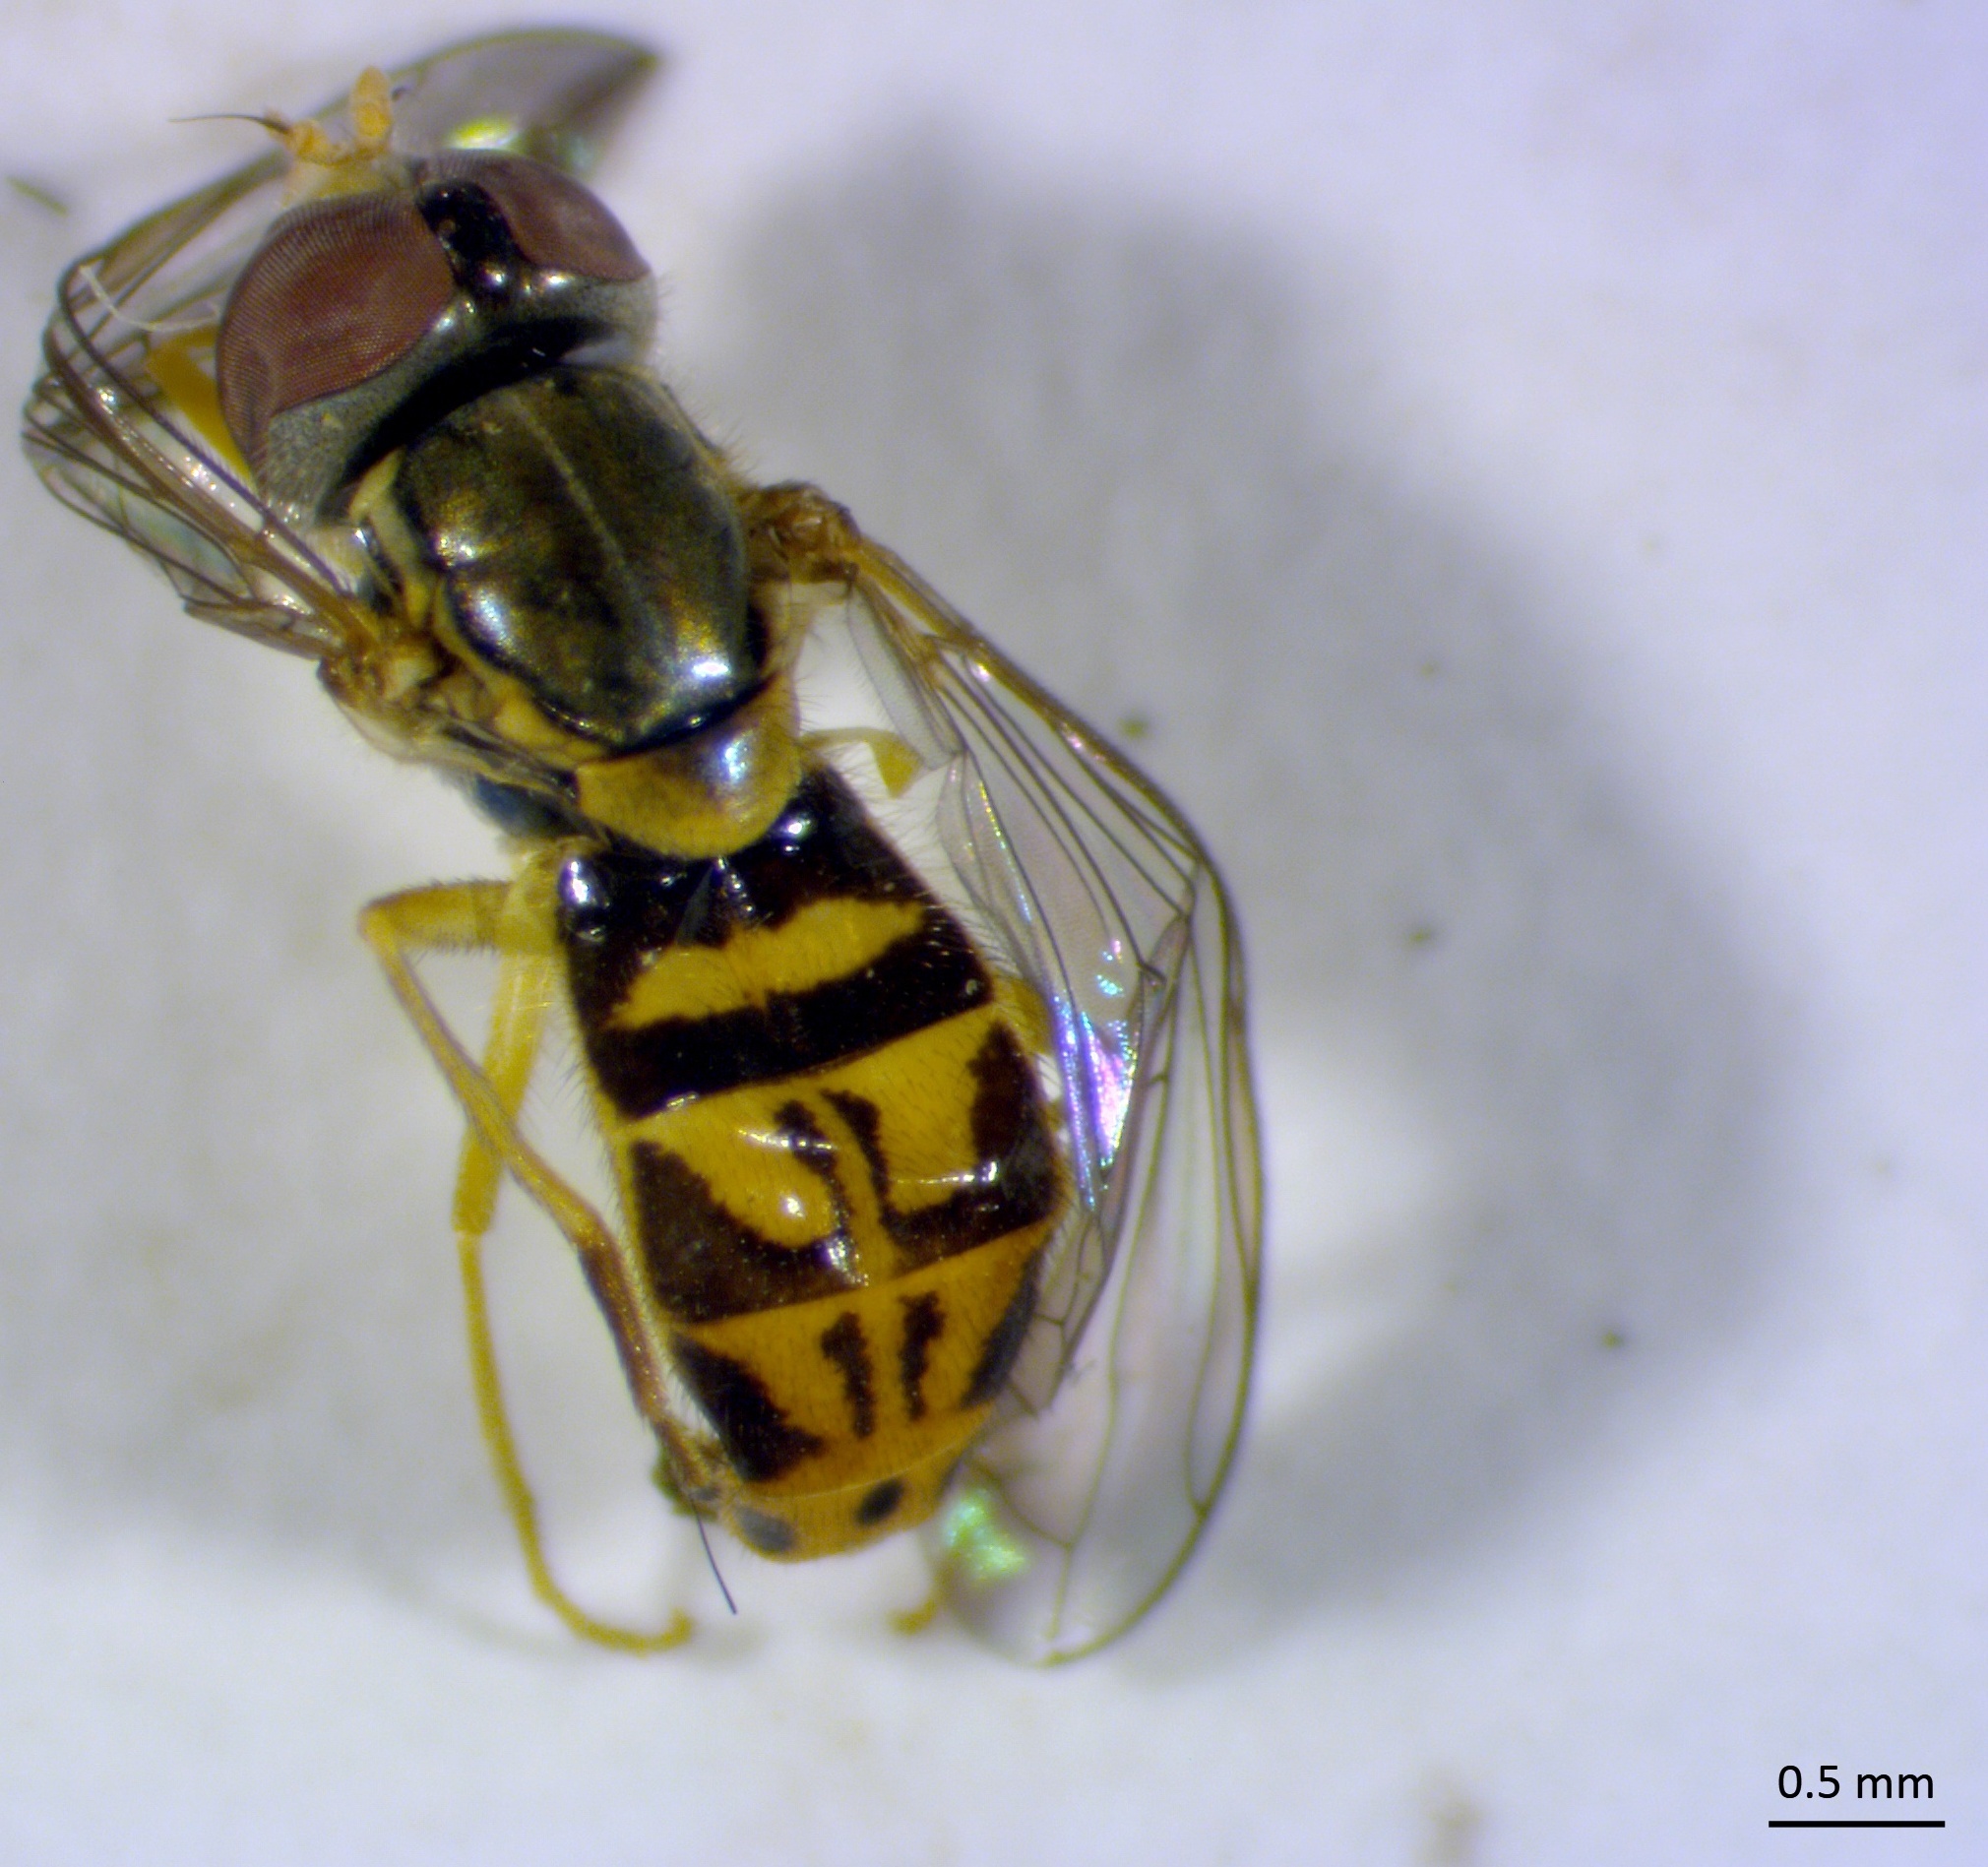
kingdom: Animalia
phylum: Arthropoda
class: Insecta
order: Diptera
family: Syrphidae
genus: Toxomerus
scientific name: Toxomerus marginatus
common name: Syrphid fly
